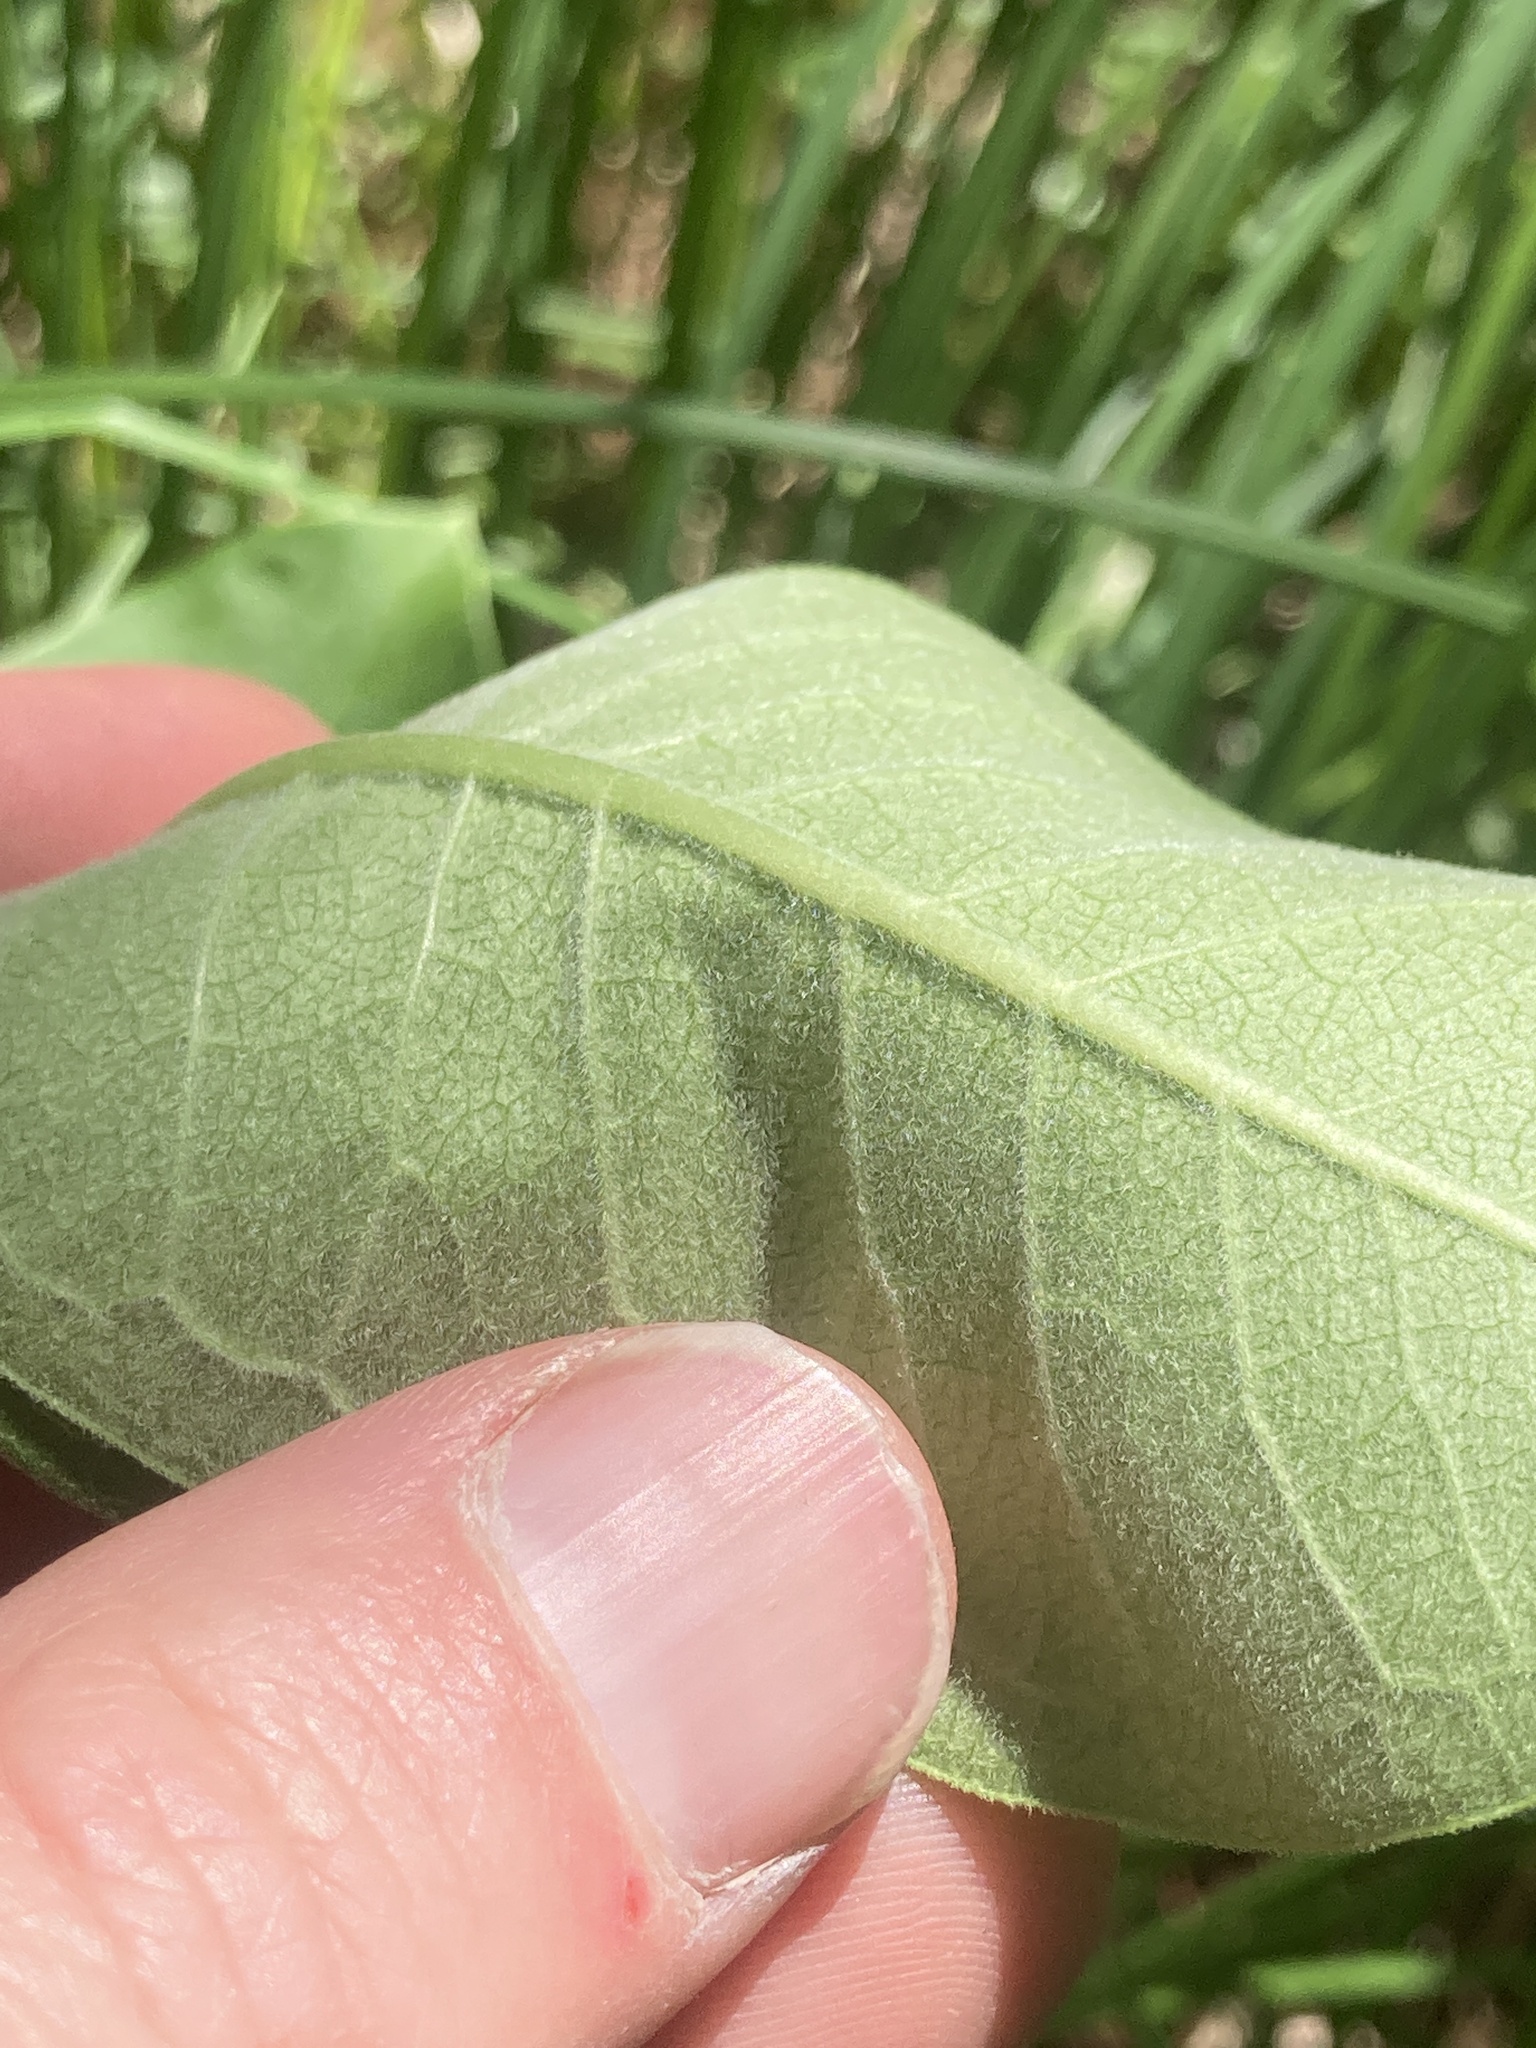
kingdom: Plantae
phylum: Tracheophyta
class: Magnoliopsida
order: Gentianales
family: Apocynaceae
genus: Asclepias
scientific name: Asclepias syriaca
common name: Common milkweed
